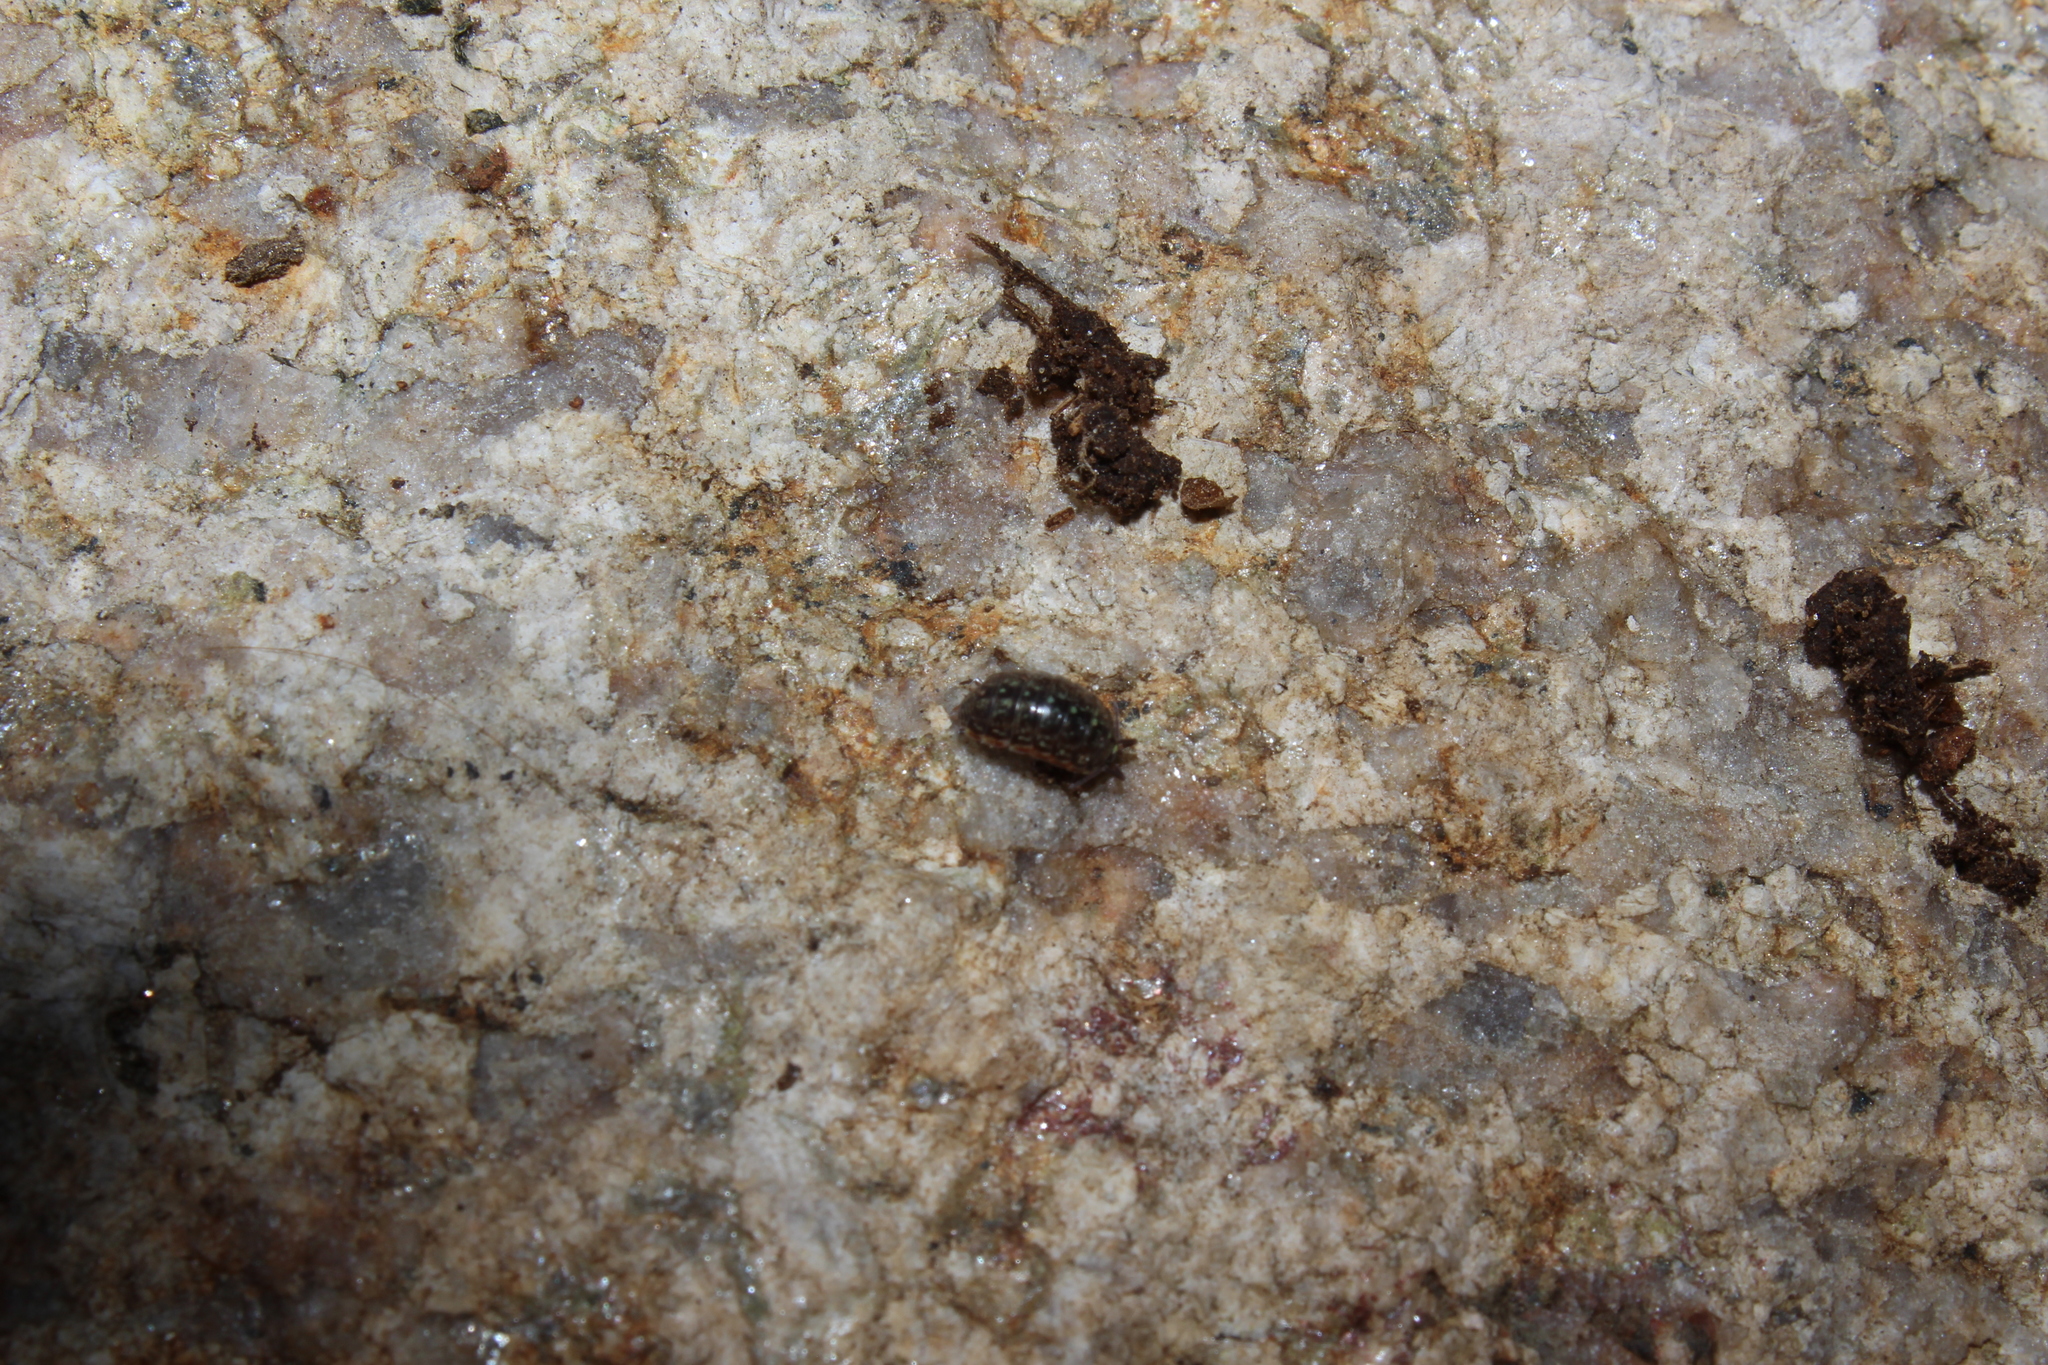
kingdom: Animalia
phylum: Arthropoda
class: Malacostraca
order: Isopoda
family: Philosciidae
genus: Philoscia
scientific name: Philoscia muscorum
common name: Common striped woodlouse
